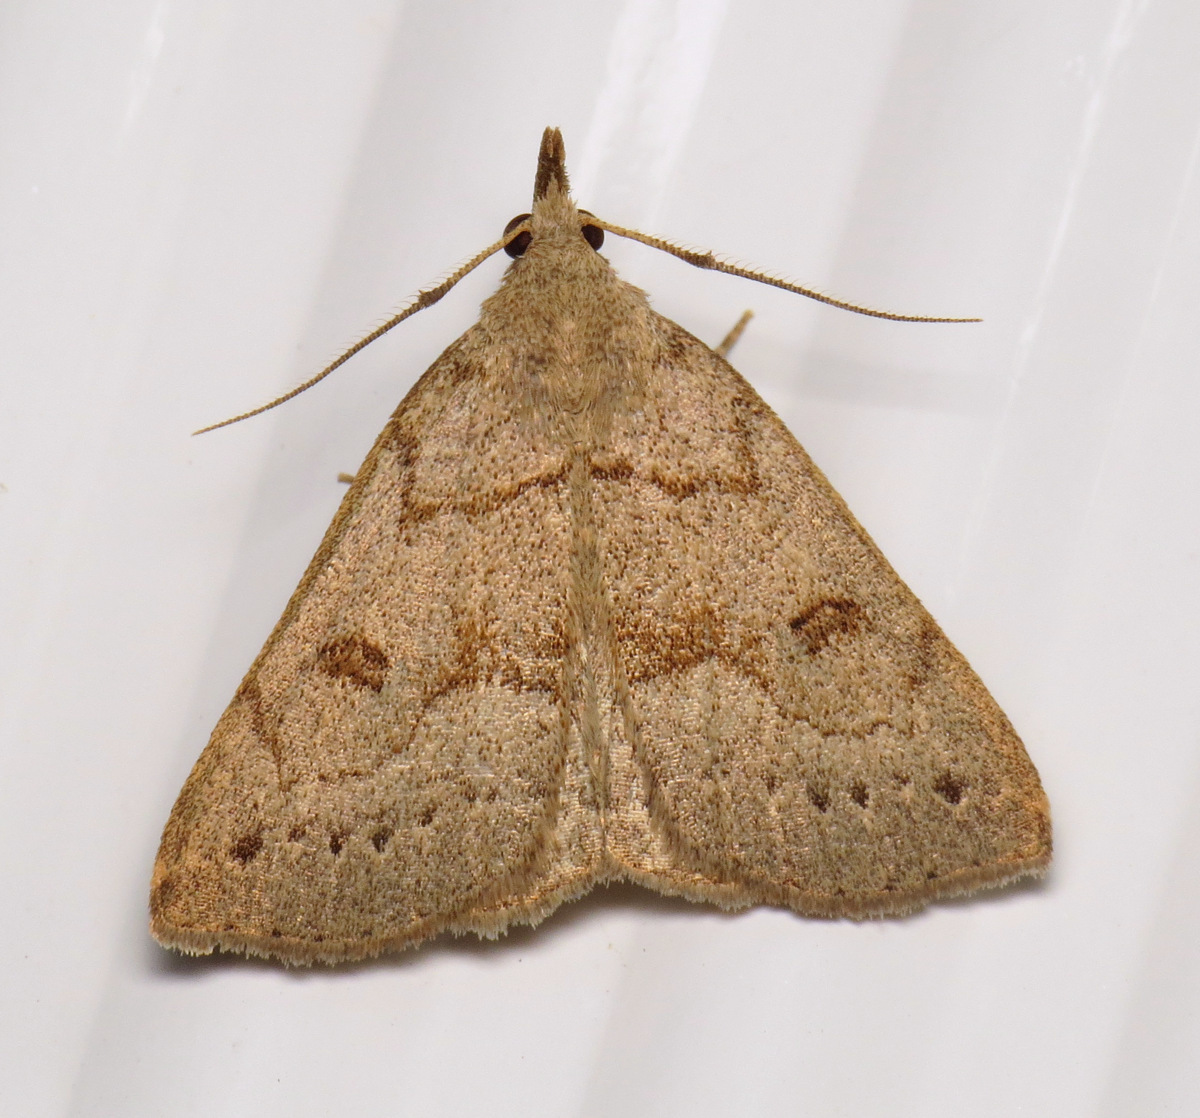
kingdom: Animalia
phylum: Arthropoda
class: Insecta
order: Lepidoptera
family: Erebidae
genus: Macrochilo
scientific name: Macrochilo morbidalis
